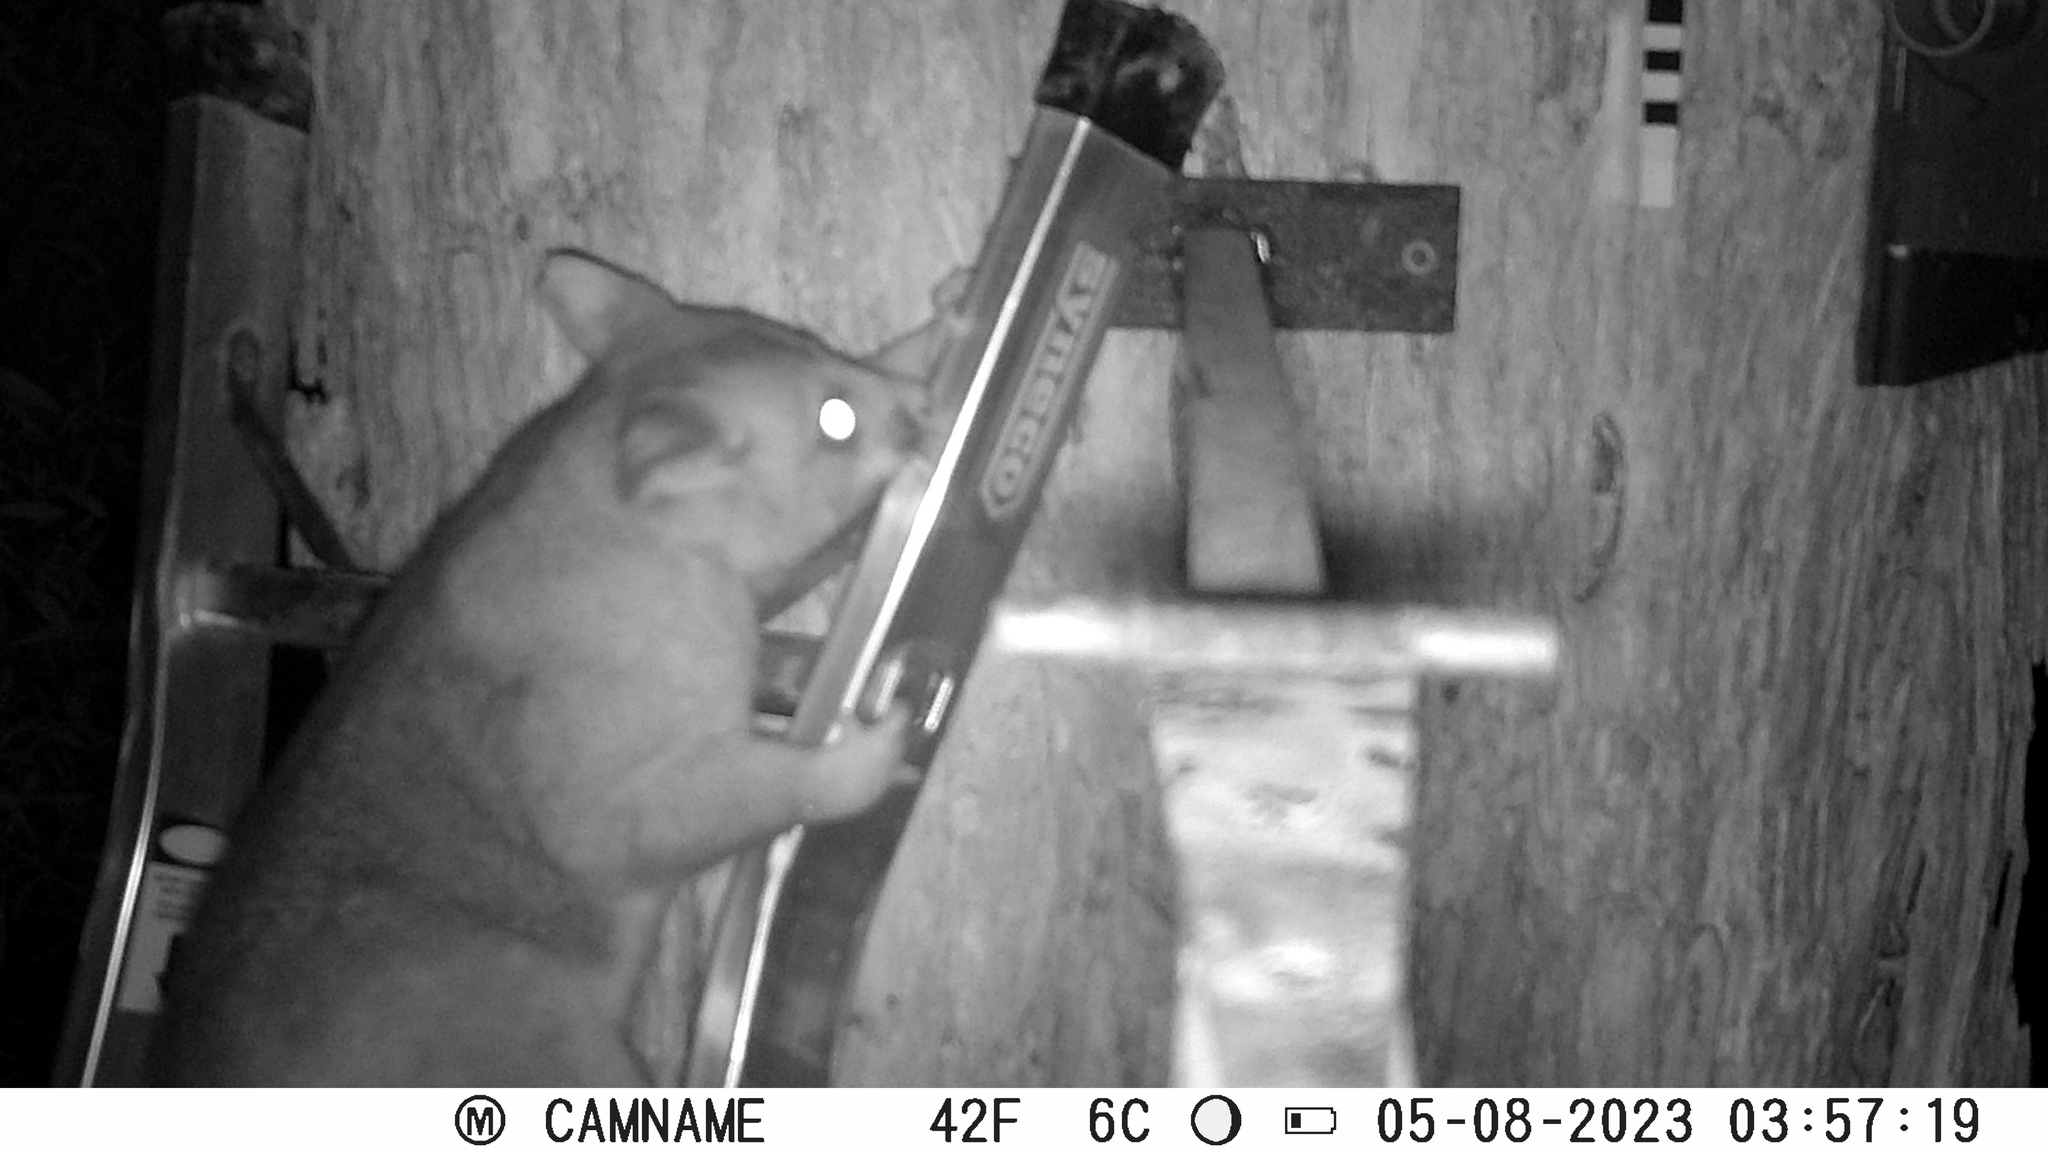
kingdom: Animalia
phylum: Chordata
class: Mammalia
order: Diprotodontia
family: Phalangeridae
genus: Trichosurus
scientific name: Trichosurus vulpecula
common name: Common brushtail
